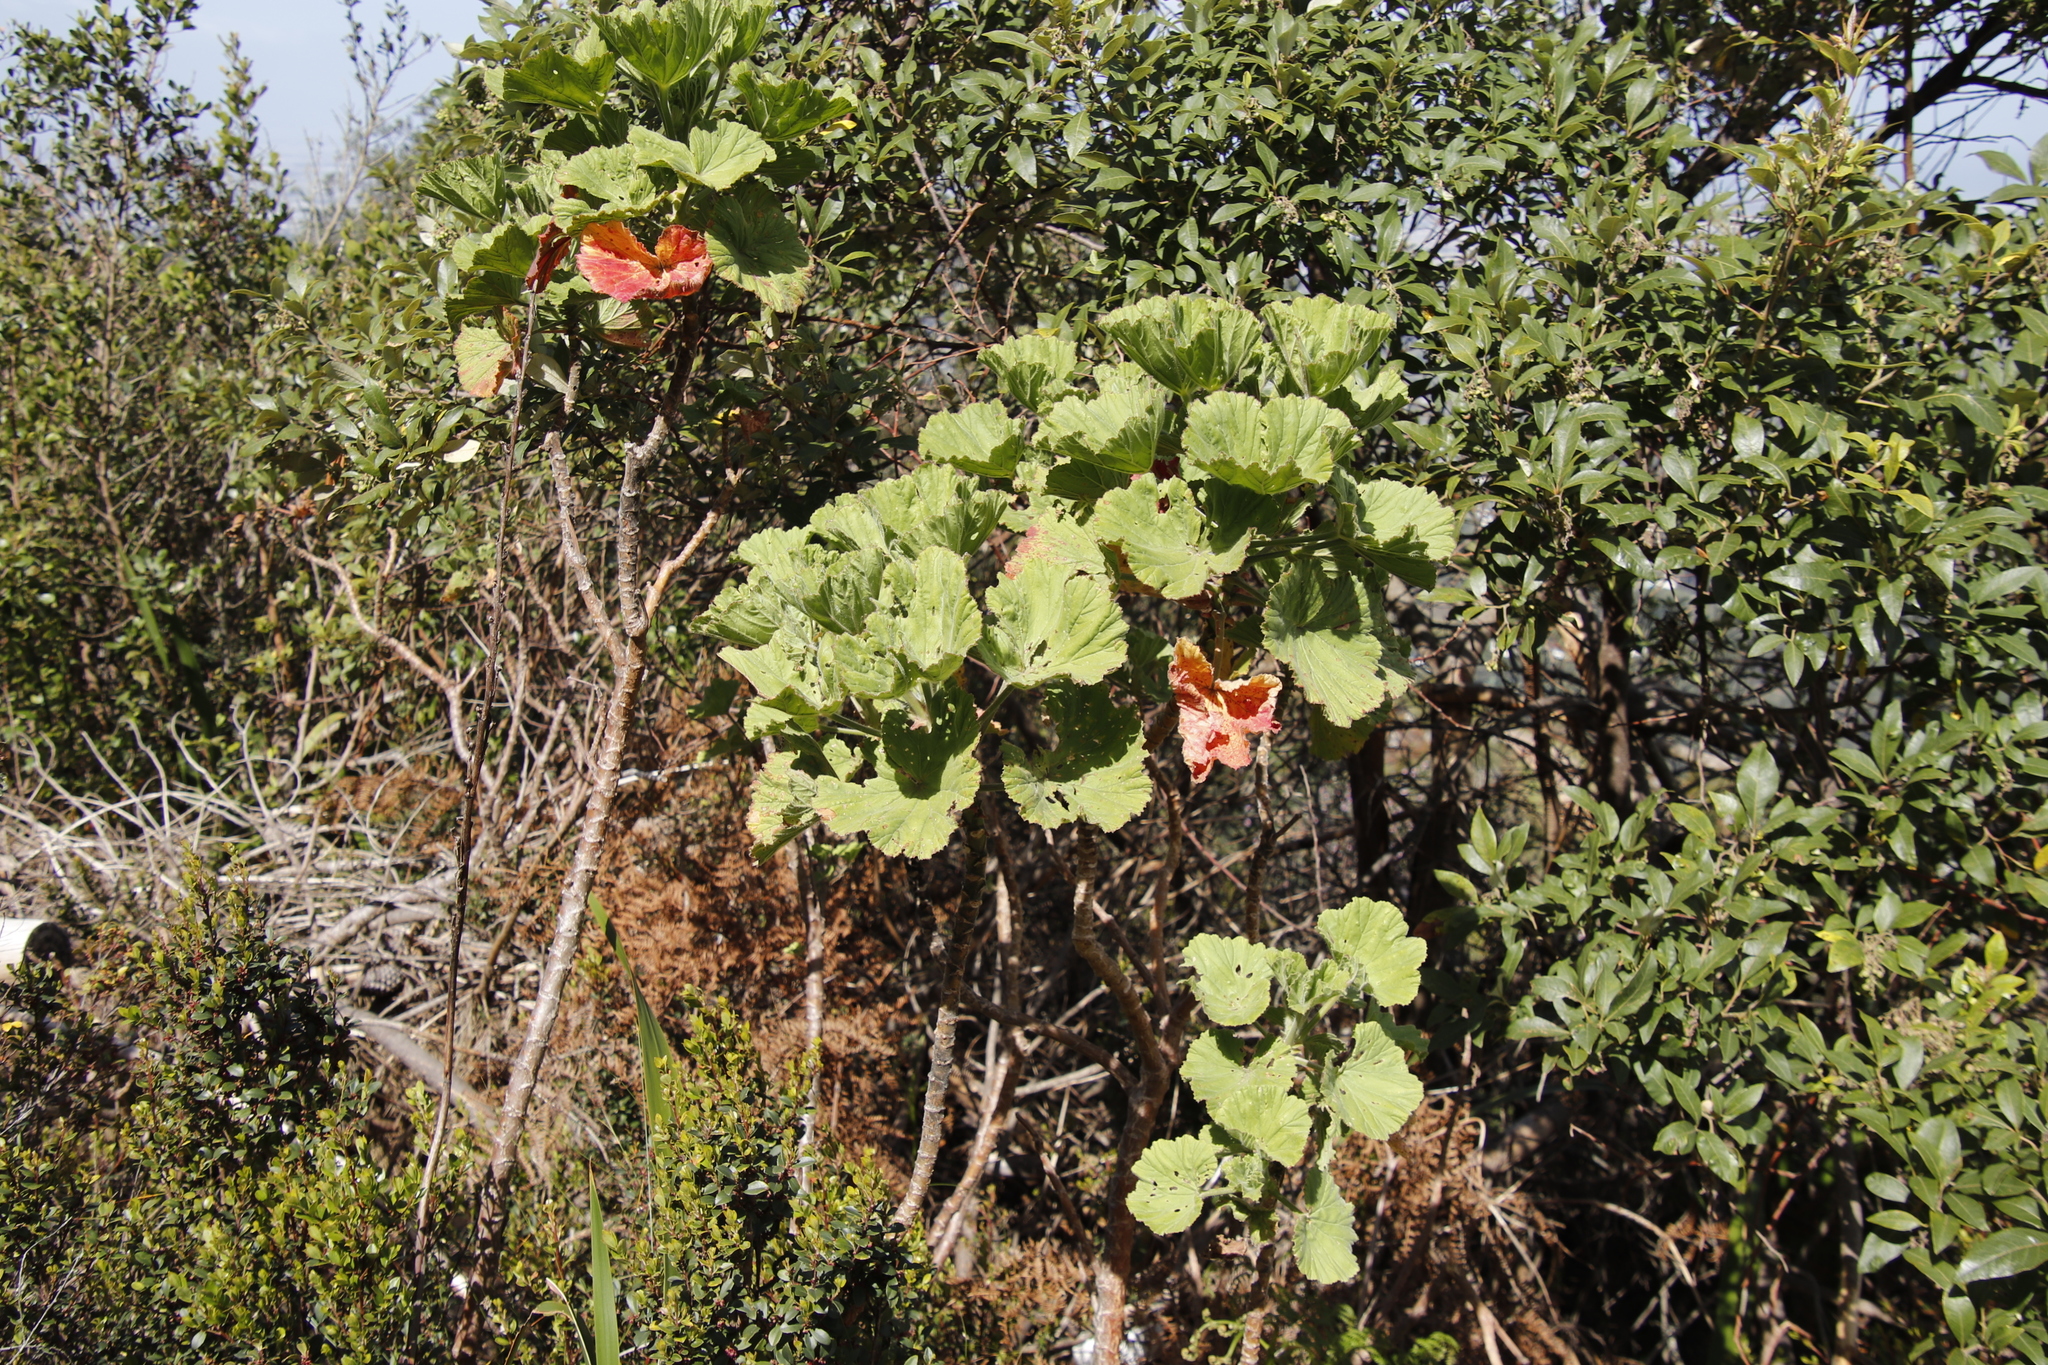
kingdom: Plantae
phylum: Tracheophyta
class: Magnoliopsida
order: Geraniales
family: Geraniaceae
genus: Pelargonium
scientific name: Pelargonium cucullatum
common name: Tree pelargonium
